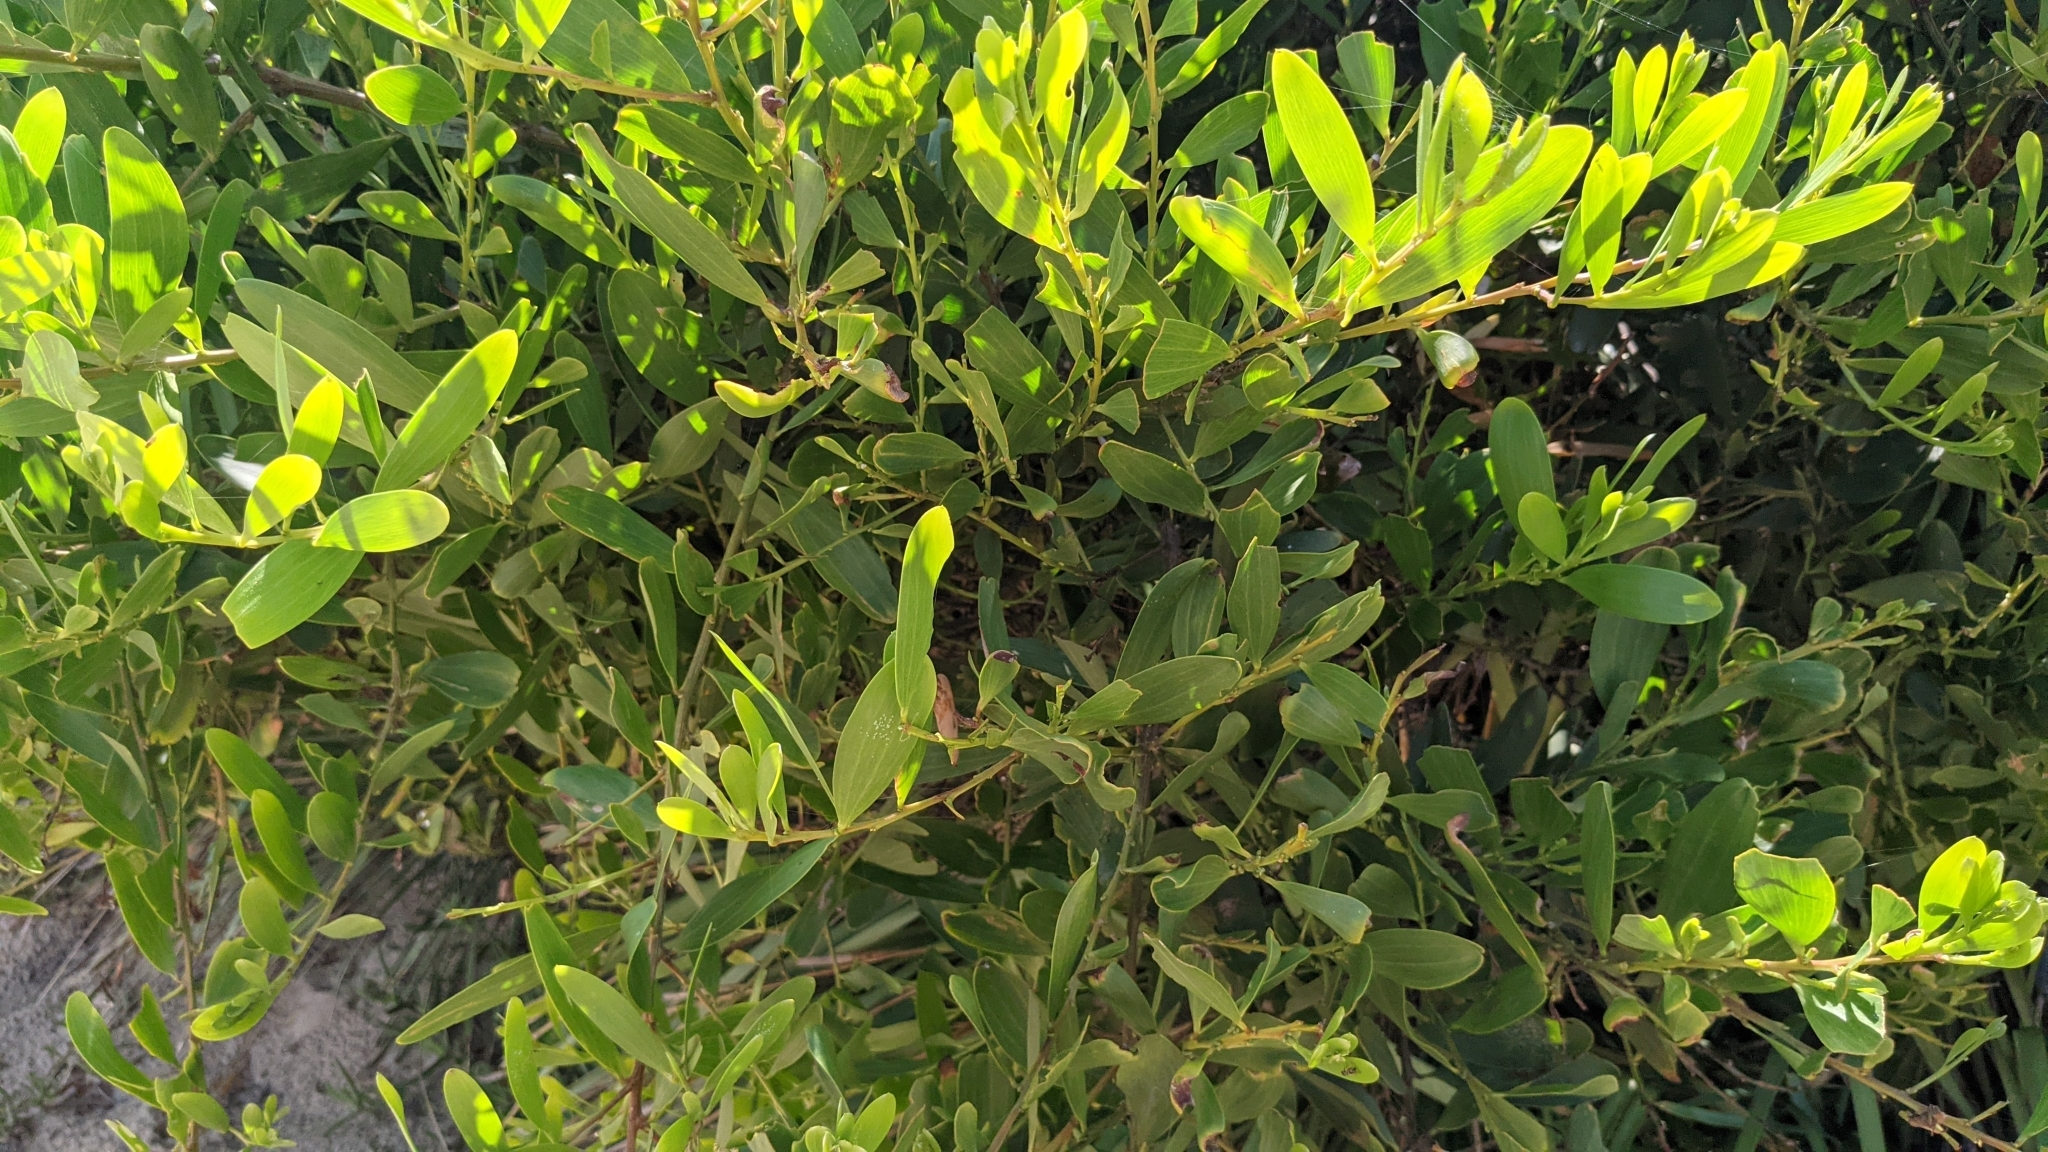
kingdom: Plantae
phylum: Tracheophyta
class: Magnoliopsida
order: Fabales
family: Fabaceae
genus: Acacia
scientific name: Acacia longifolia
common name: Sydney golden wattle
